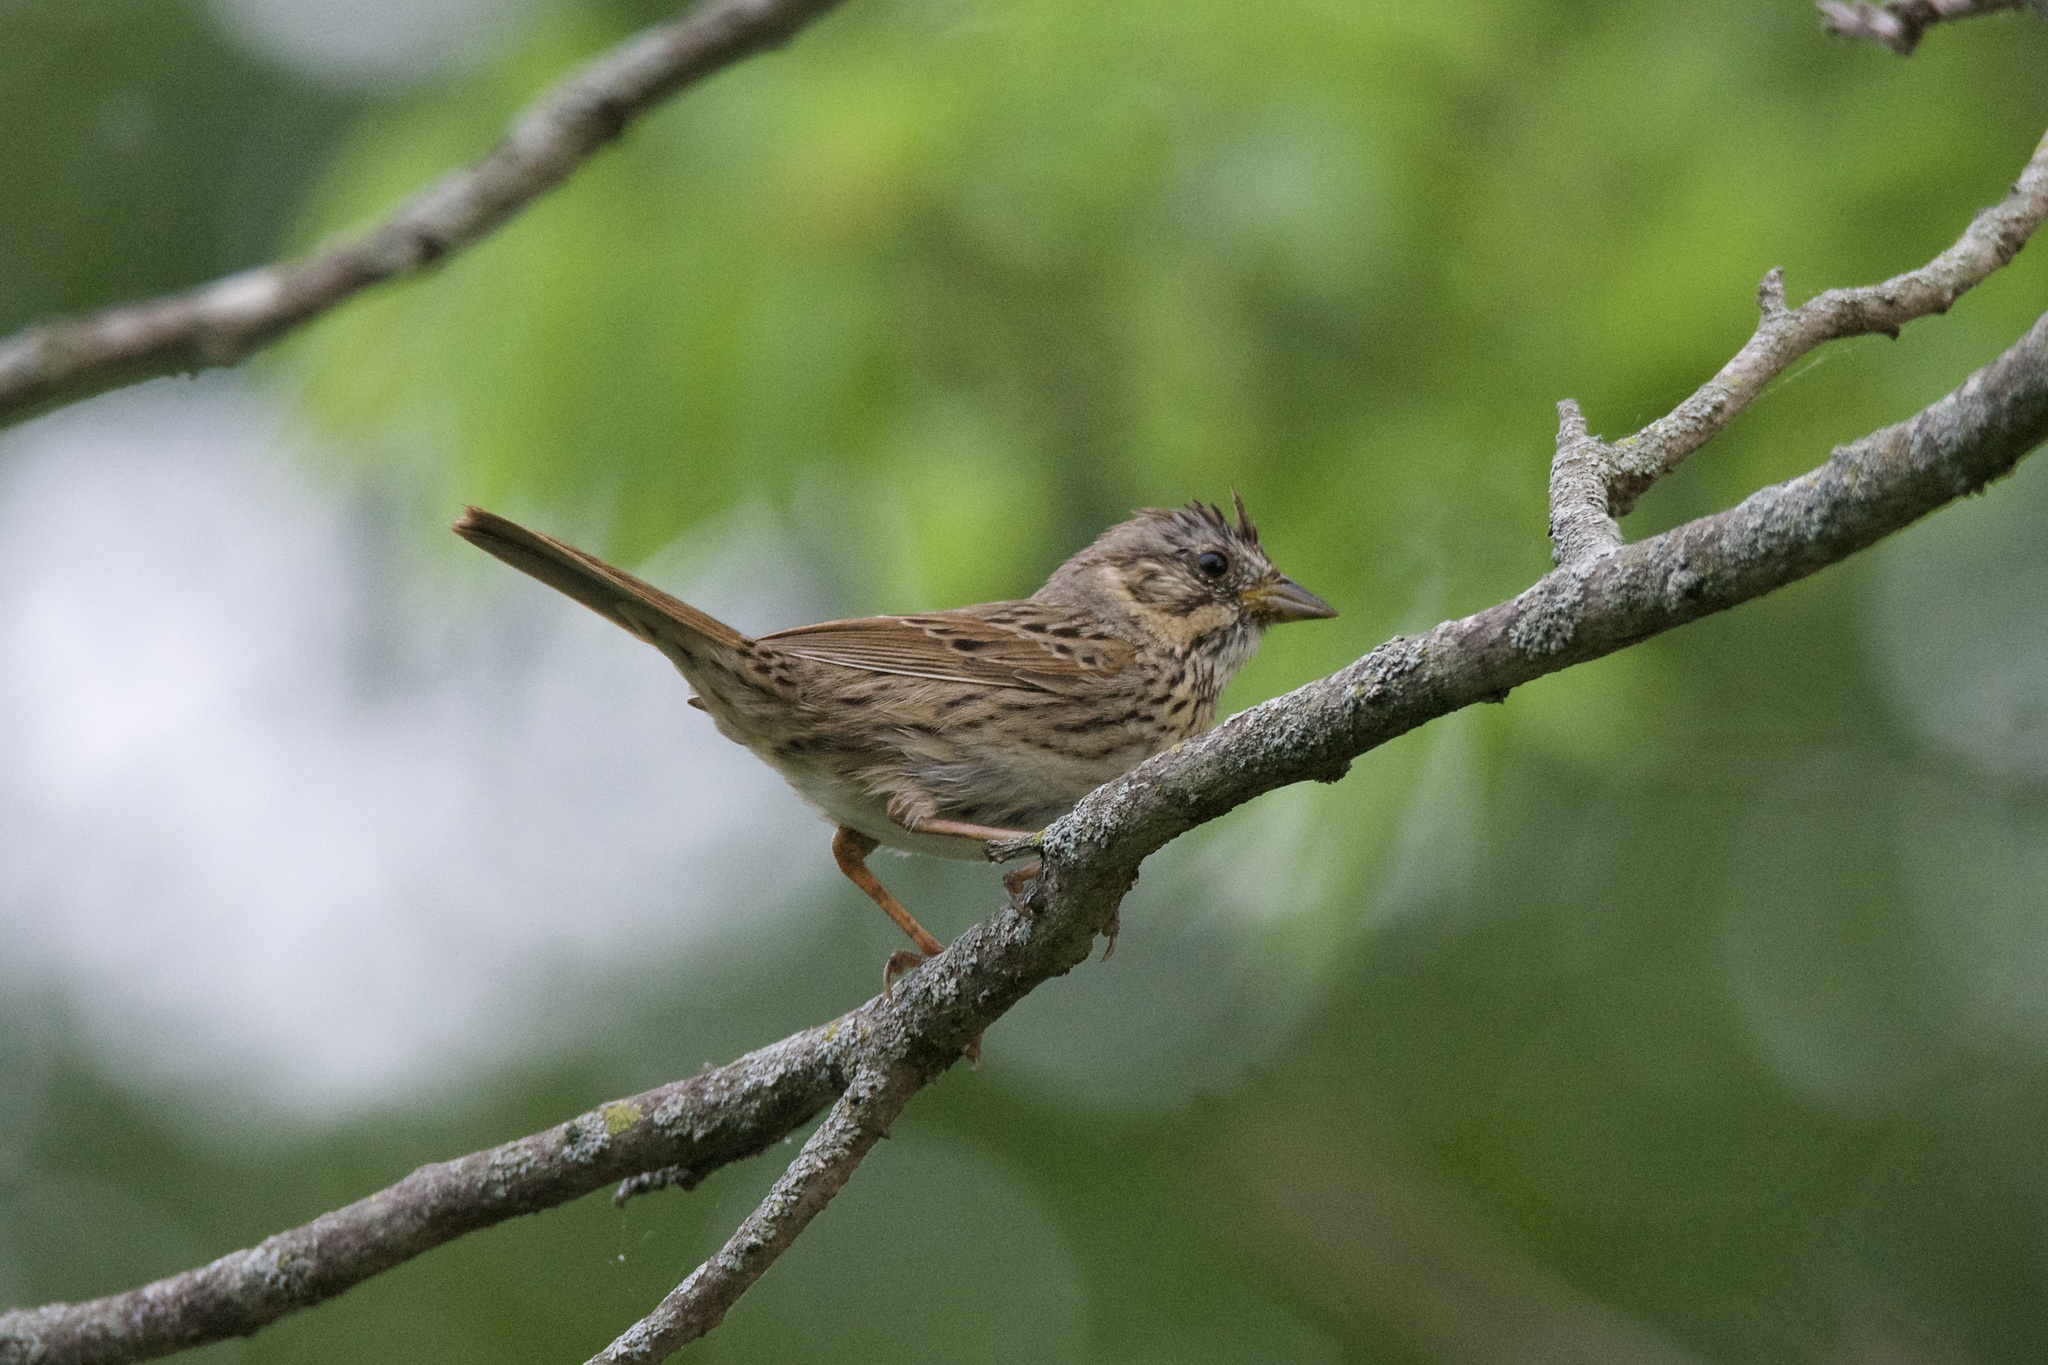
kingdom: Animalia
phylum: Chordata
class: Aves
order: Passeriformes
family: Passerellidae
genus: Melospiza
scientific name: Melospiza lincolnii
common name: Lincoln's sparrow
